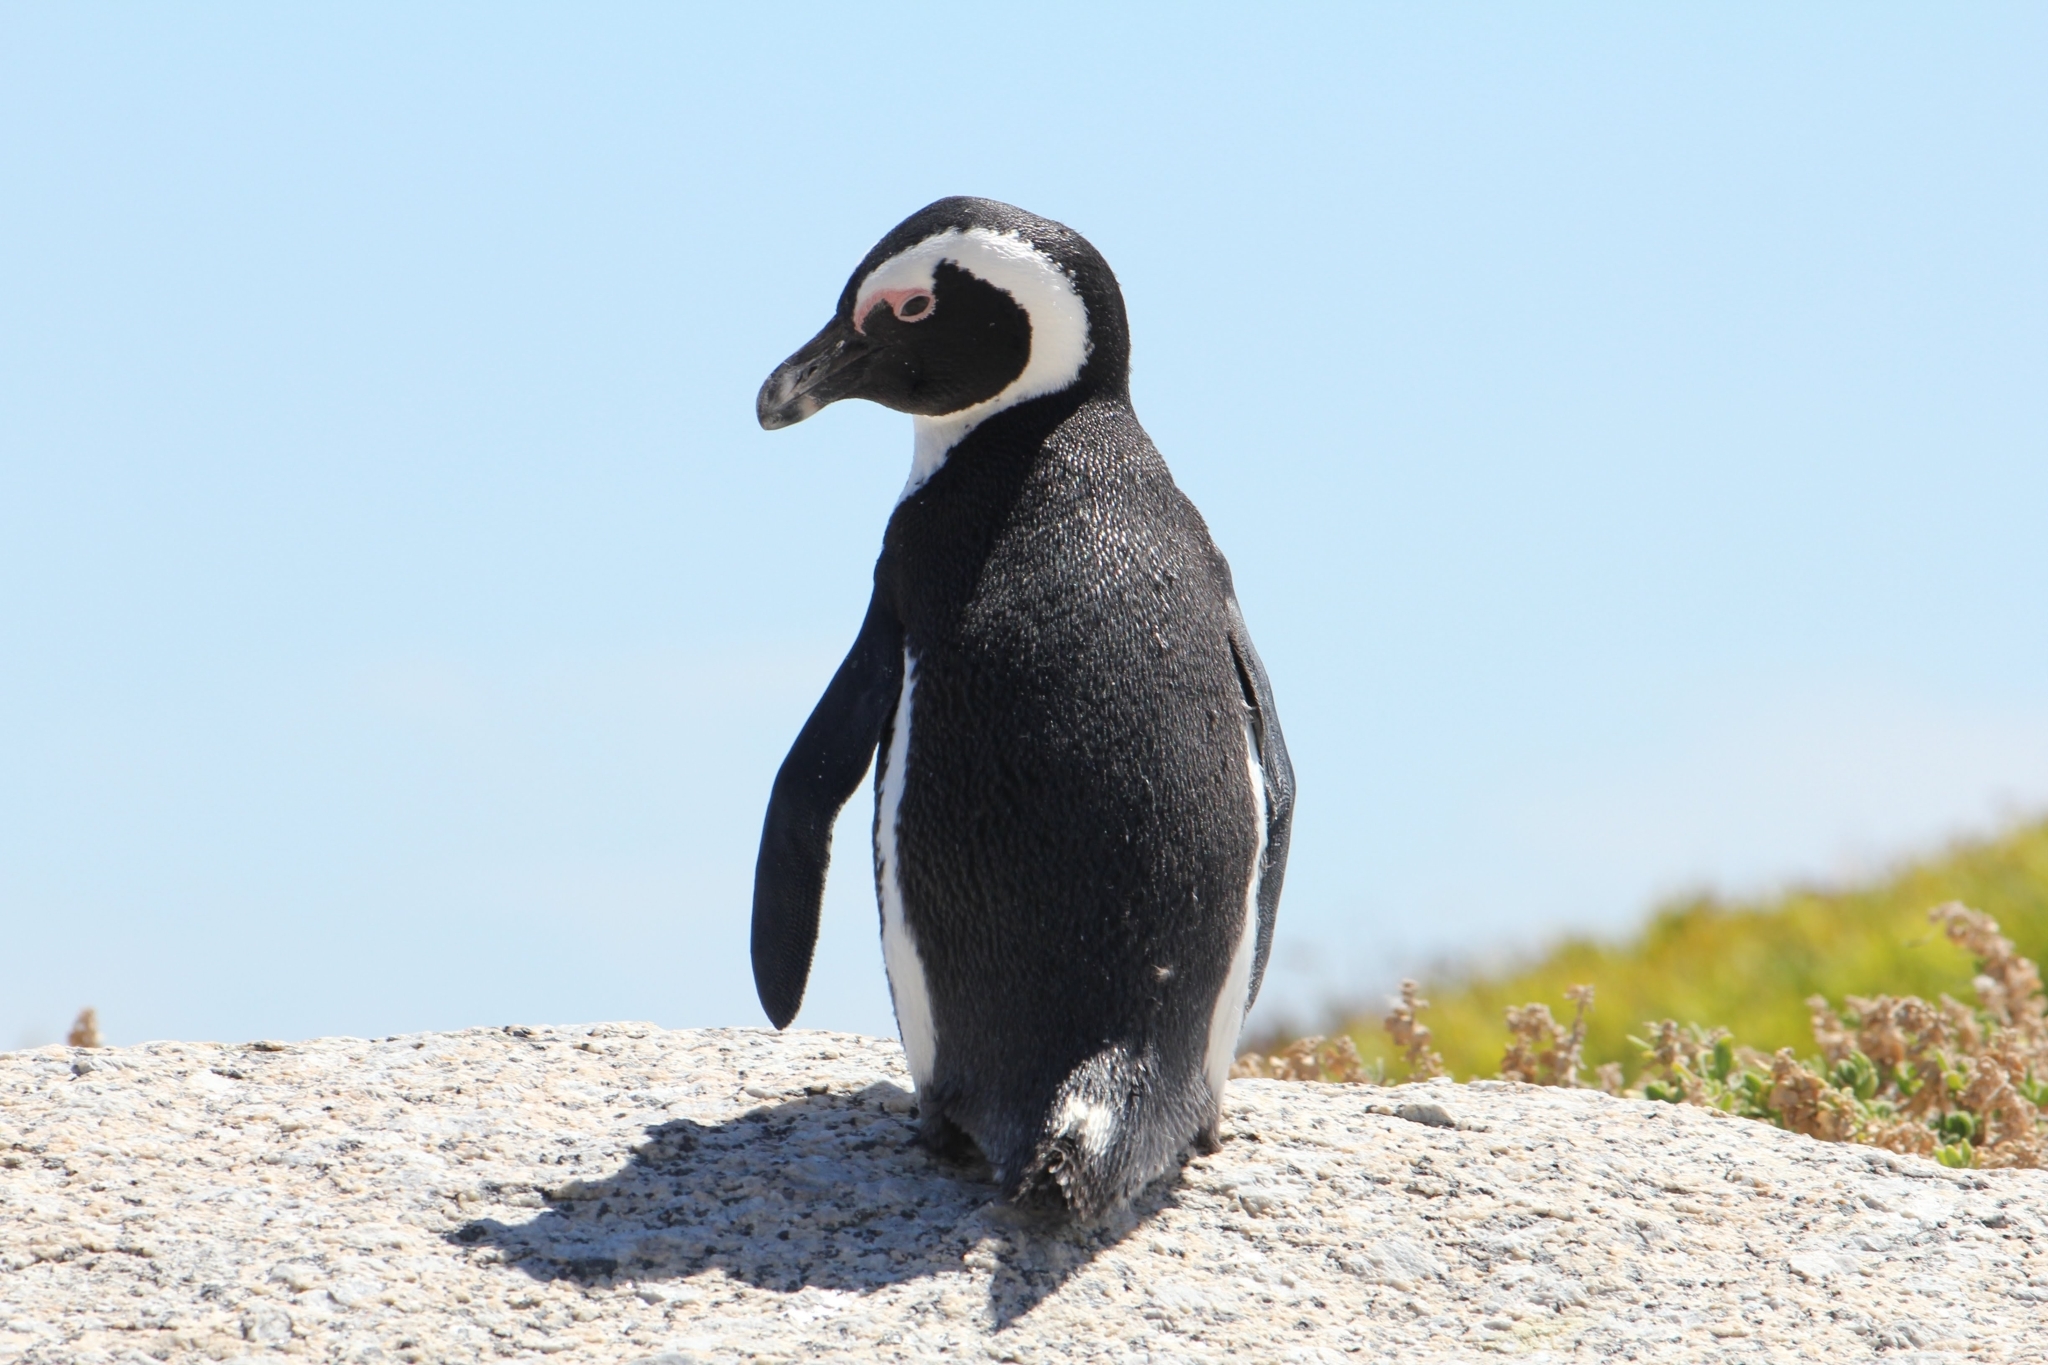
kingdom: Animalia
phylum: Chordata
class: Aves
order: Sphenisciformes
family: Spheniscidae
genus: Spheniscus
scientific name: Spheniscus demersus
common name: African penguin
